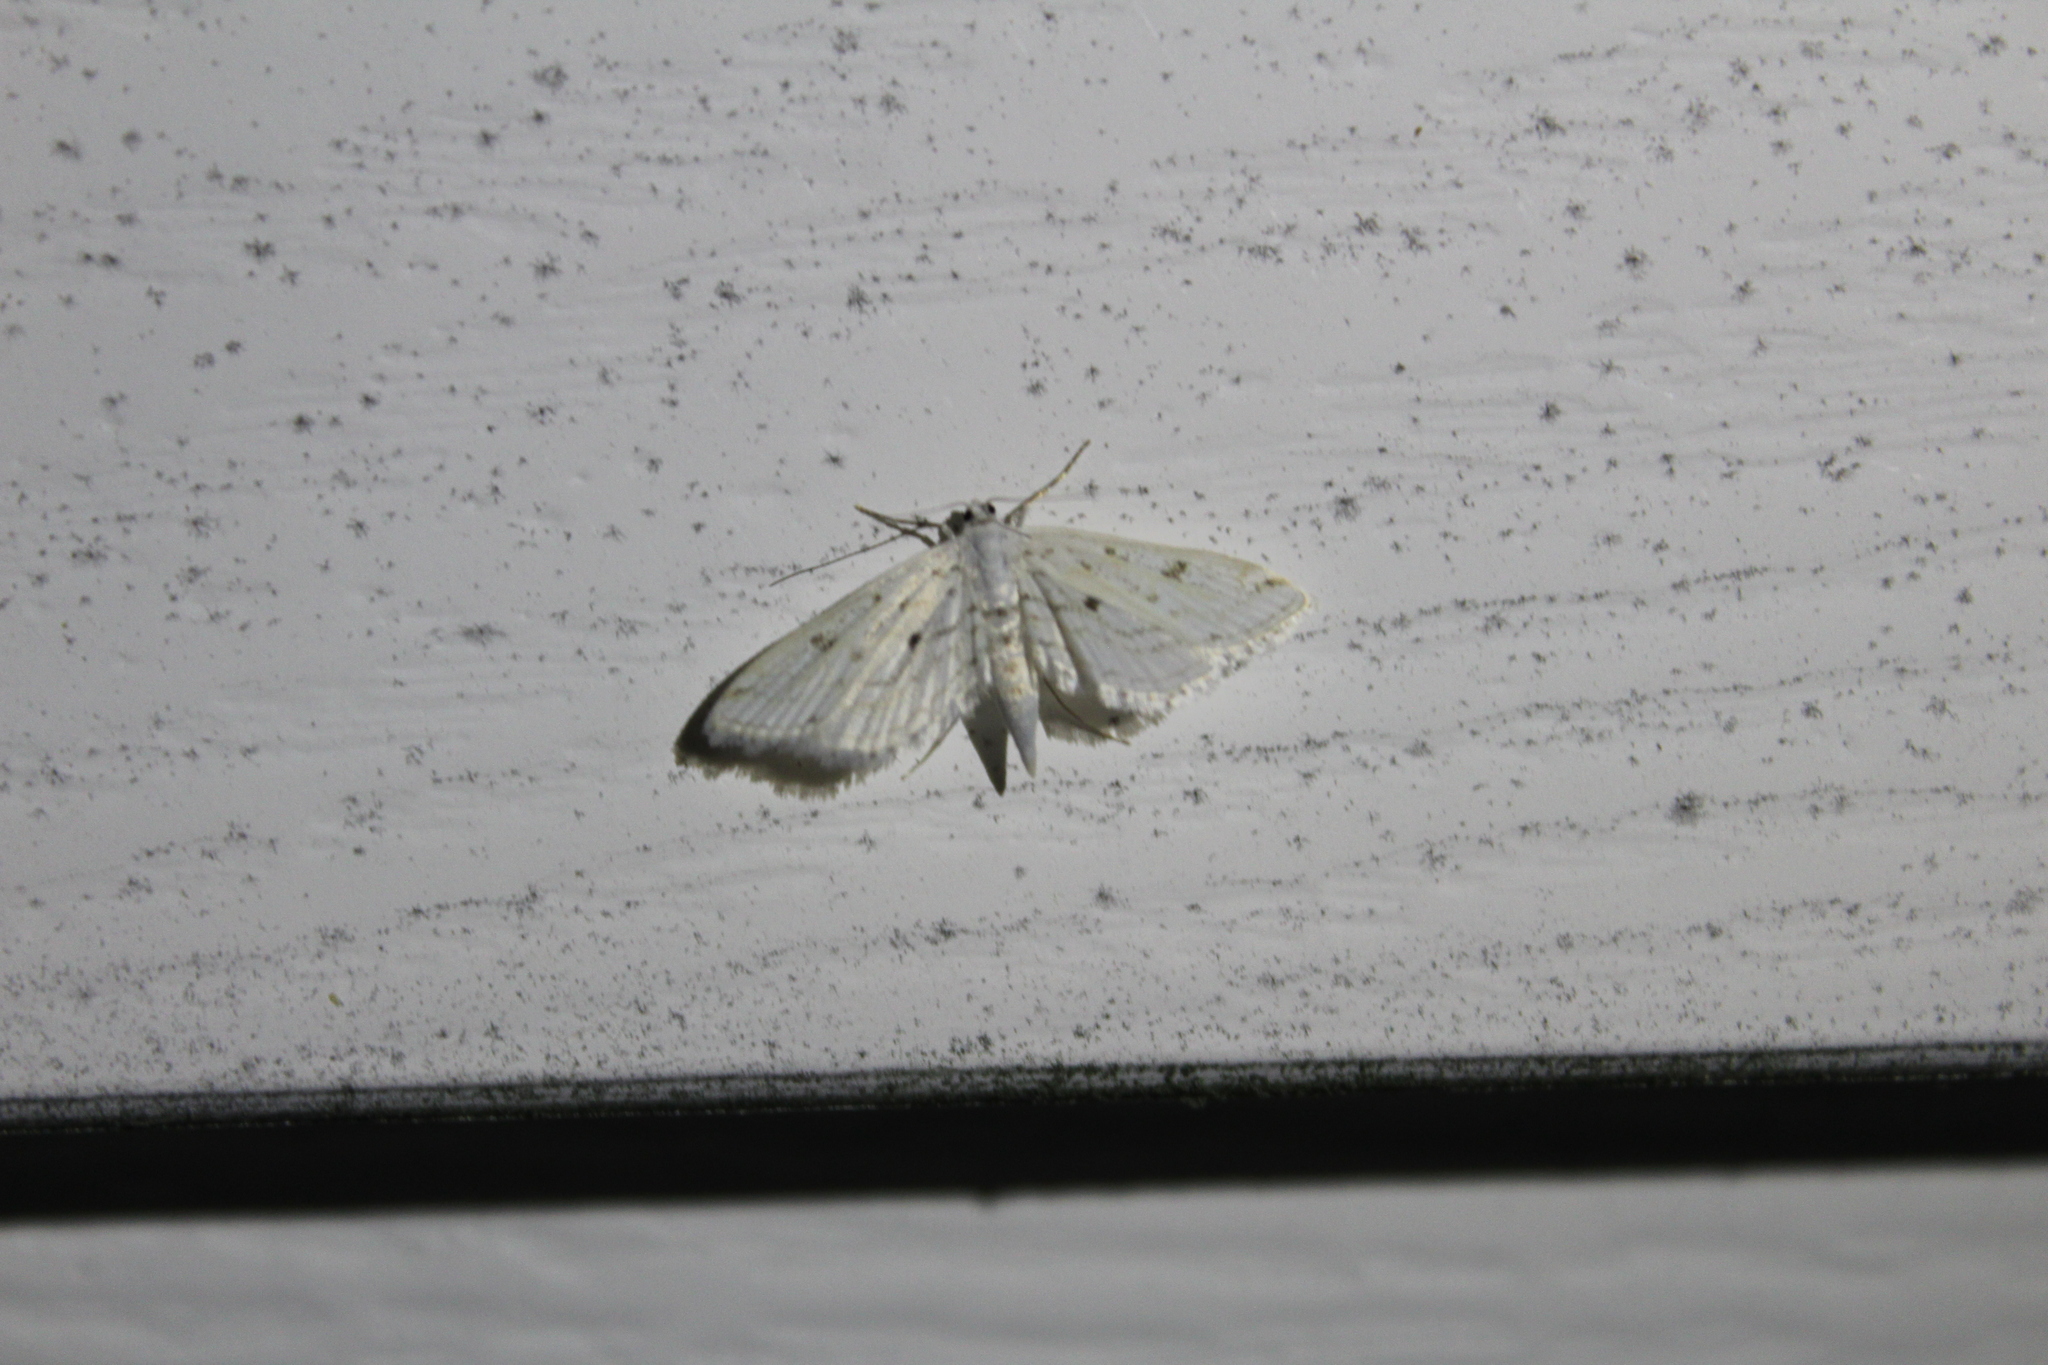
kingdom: Animalia
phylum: Arthropoda
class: Insecta
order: Lepidoptera
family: Crambidae
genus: Parapoynx
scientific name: Parapoynx allionealis
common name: Bladderwort casemaker
